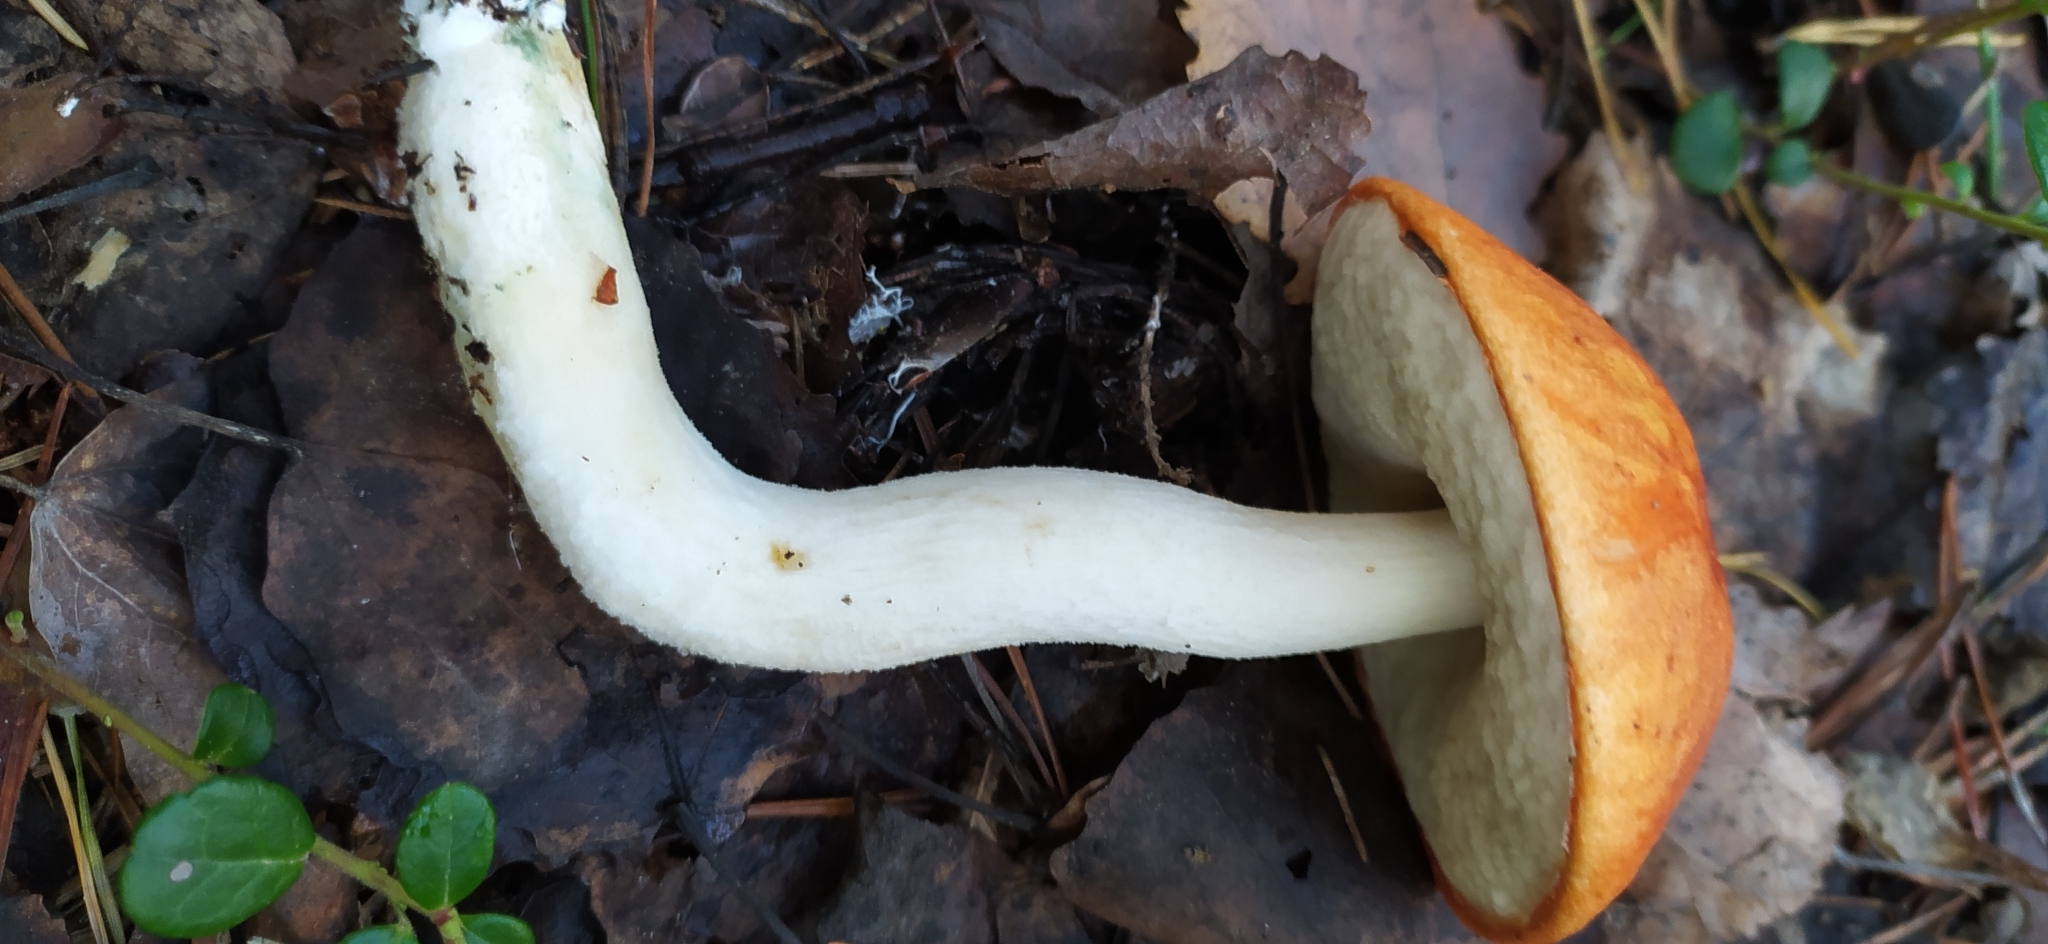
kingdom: Fungi
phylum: Basidiomycota
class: Agaricomycetes
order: Boletales
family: Boletaceae
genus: Leccinum
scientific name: Leccinum albostipitatum
